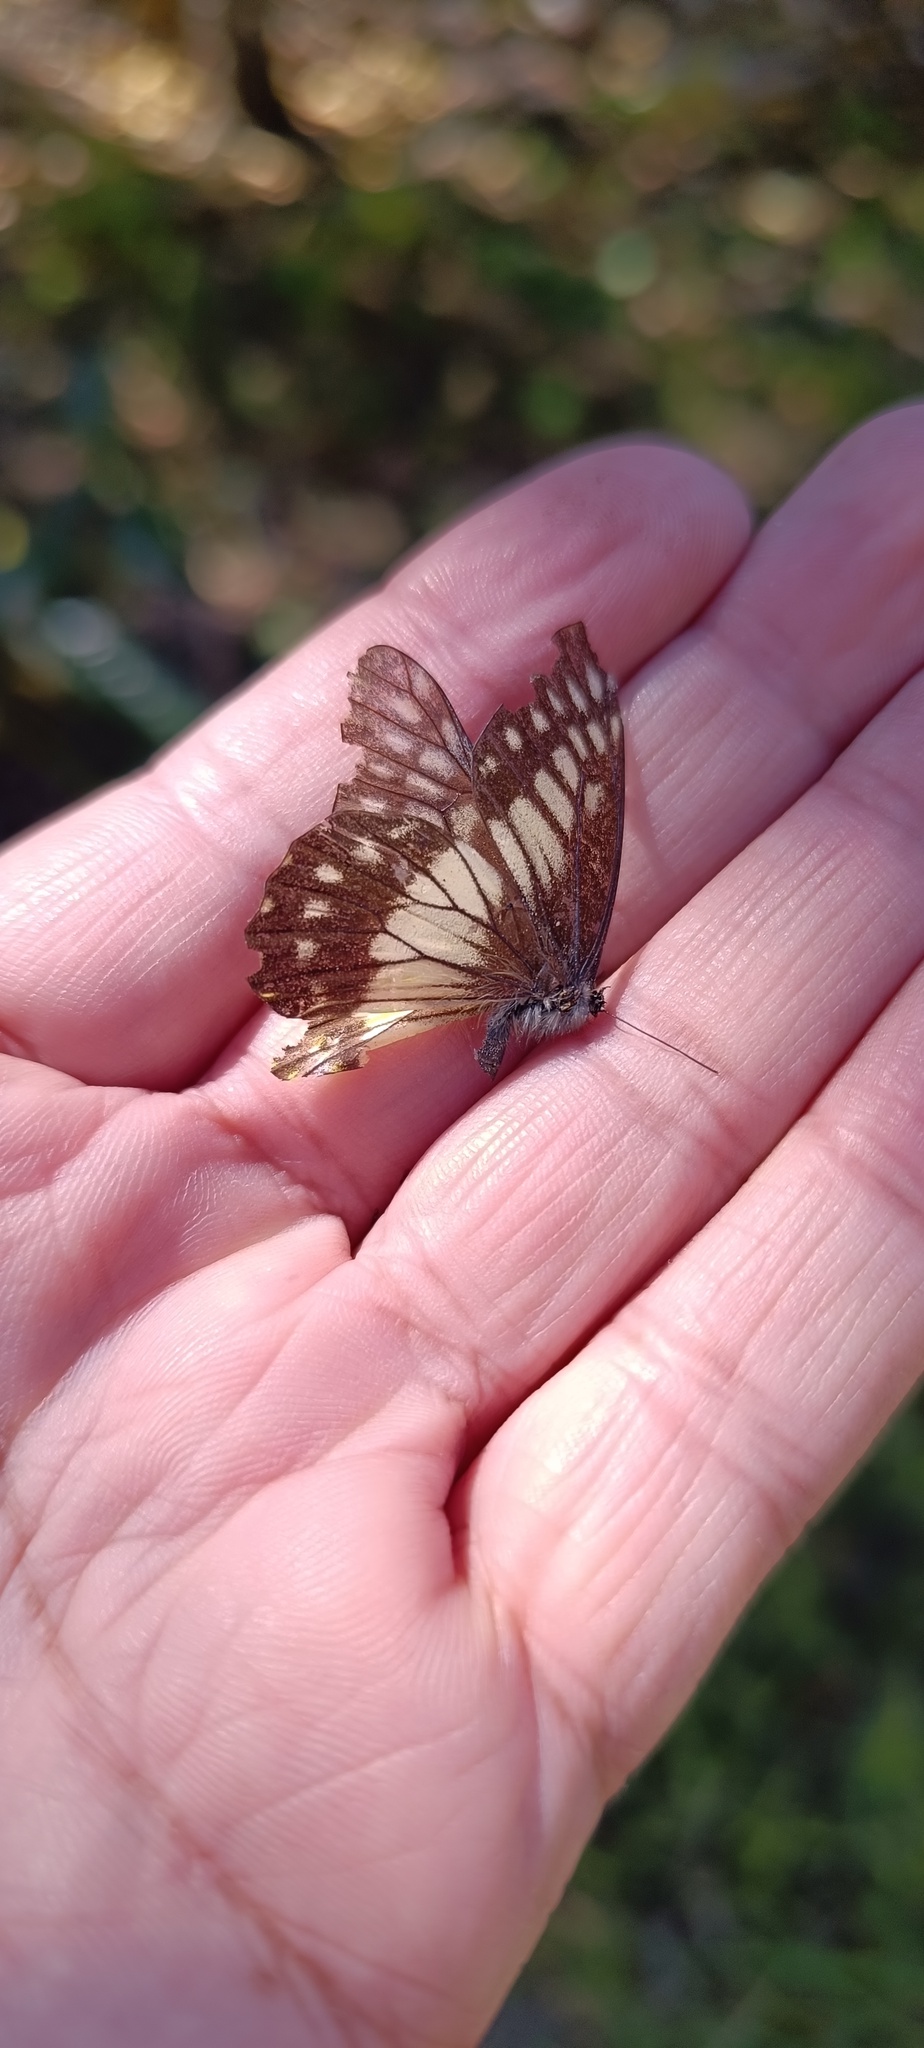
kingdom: Animalia
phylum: Arthropoda
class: Insecta
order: Lepidoptera
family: Pieridae
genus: Archonias
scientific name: Archonias nimbice
